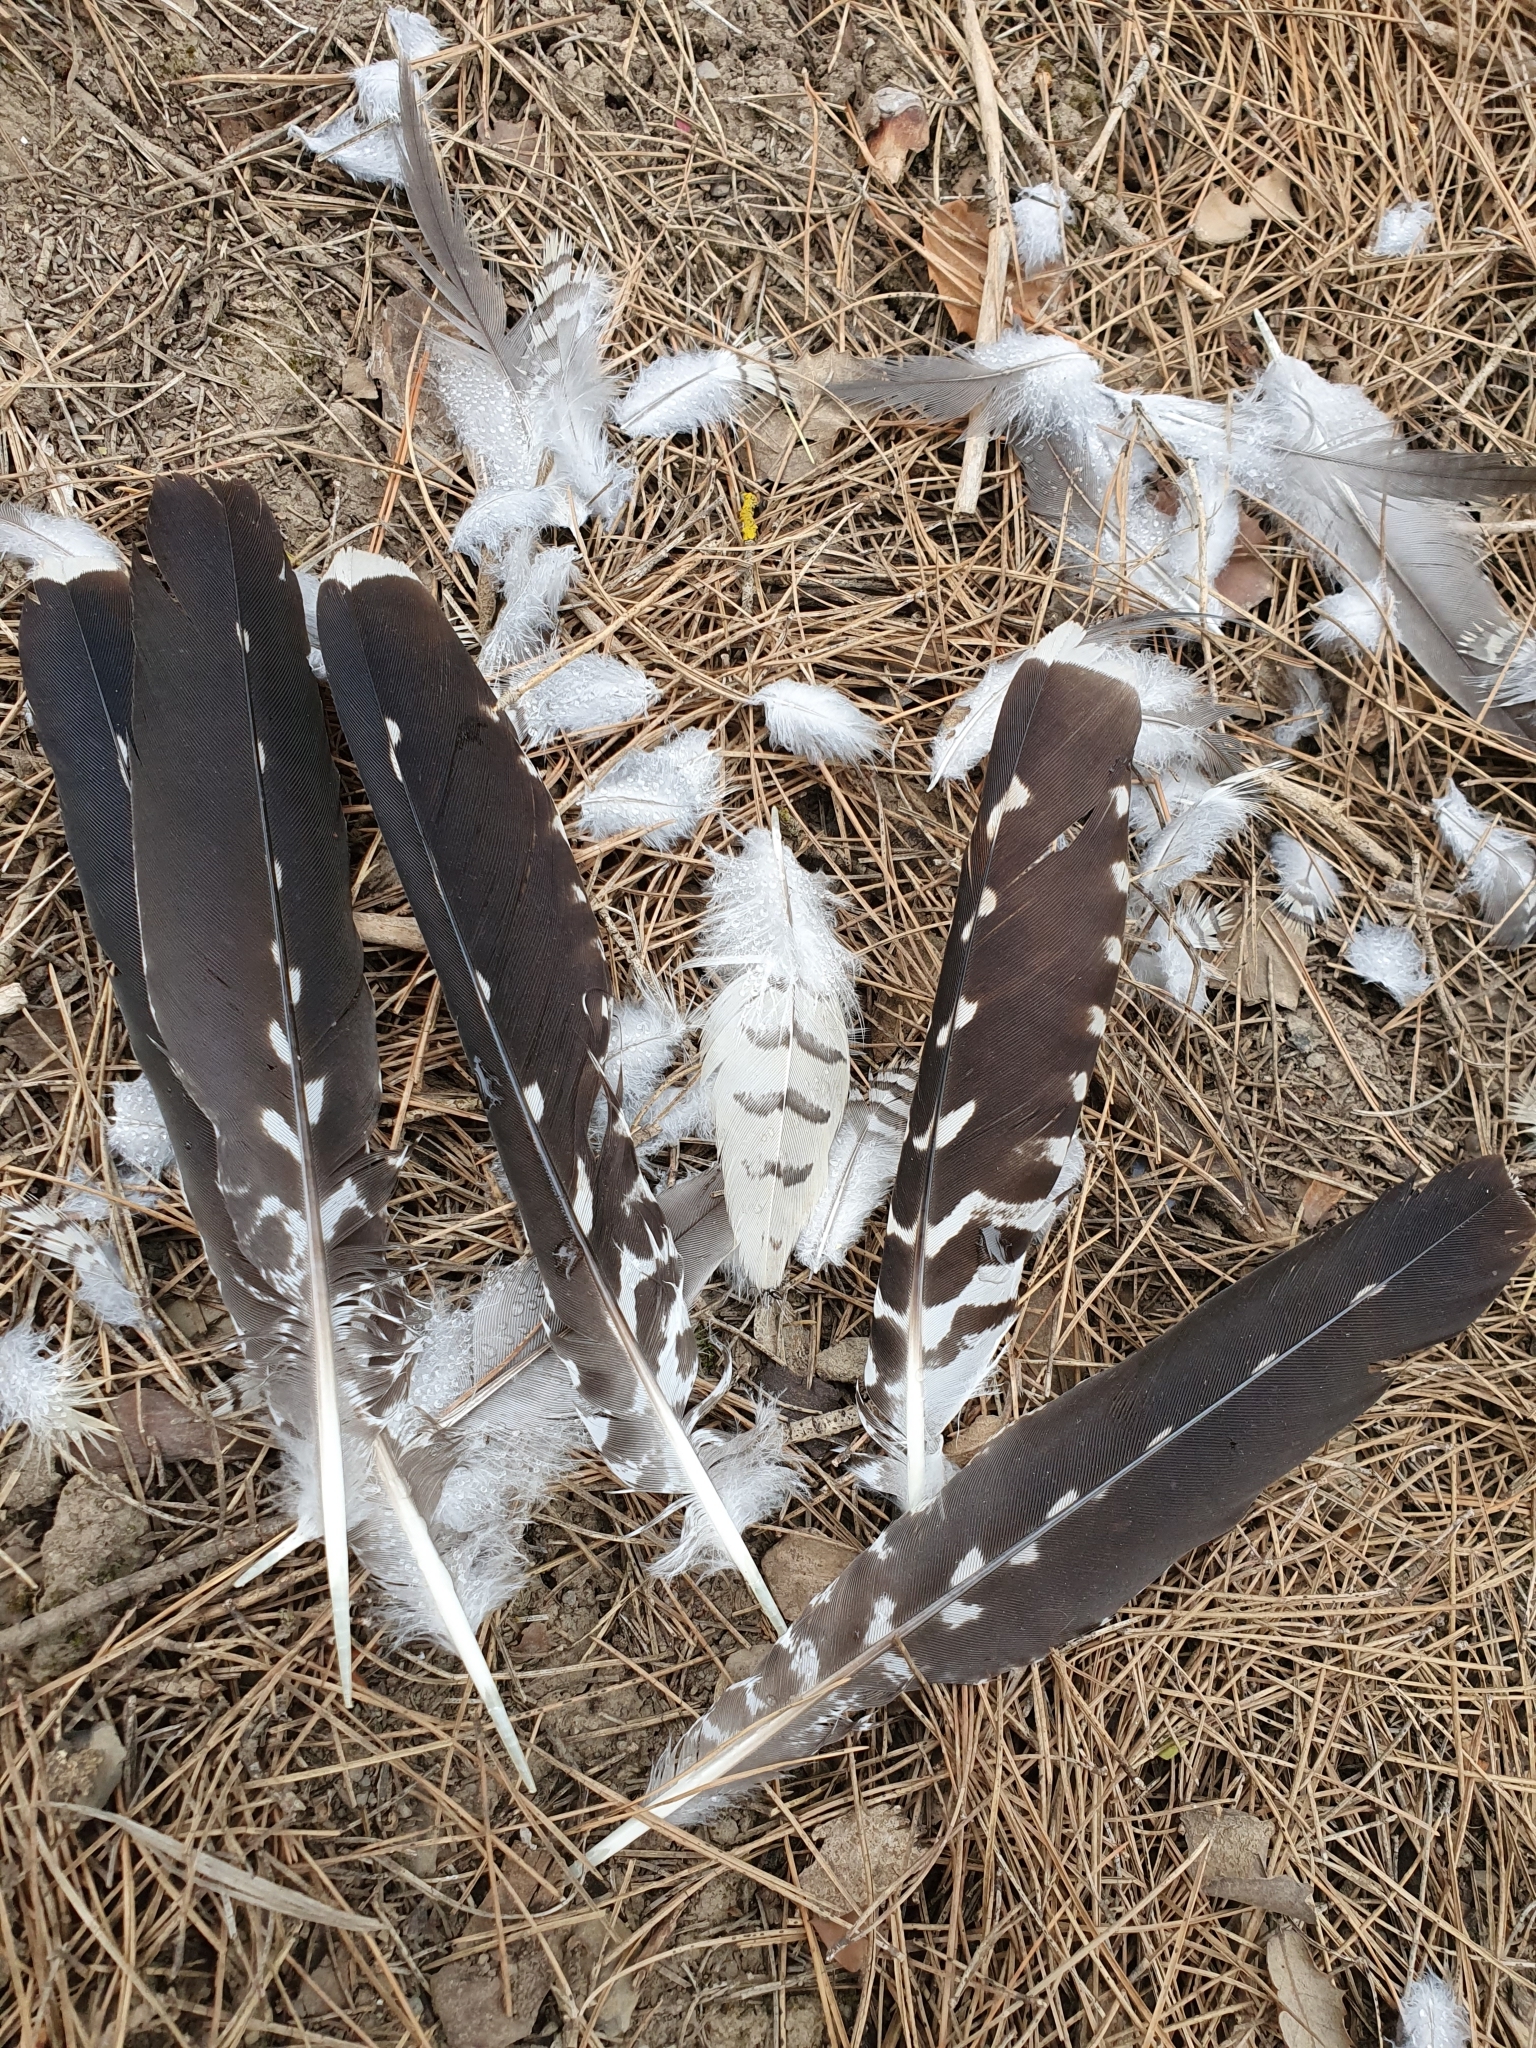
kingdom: Animalia
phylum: Chordata
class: Aves
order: Cuculiformes
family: Cuculidae
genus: Cuculus
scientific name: Cuculus canorus
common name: Common cuckoo
